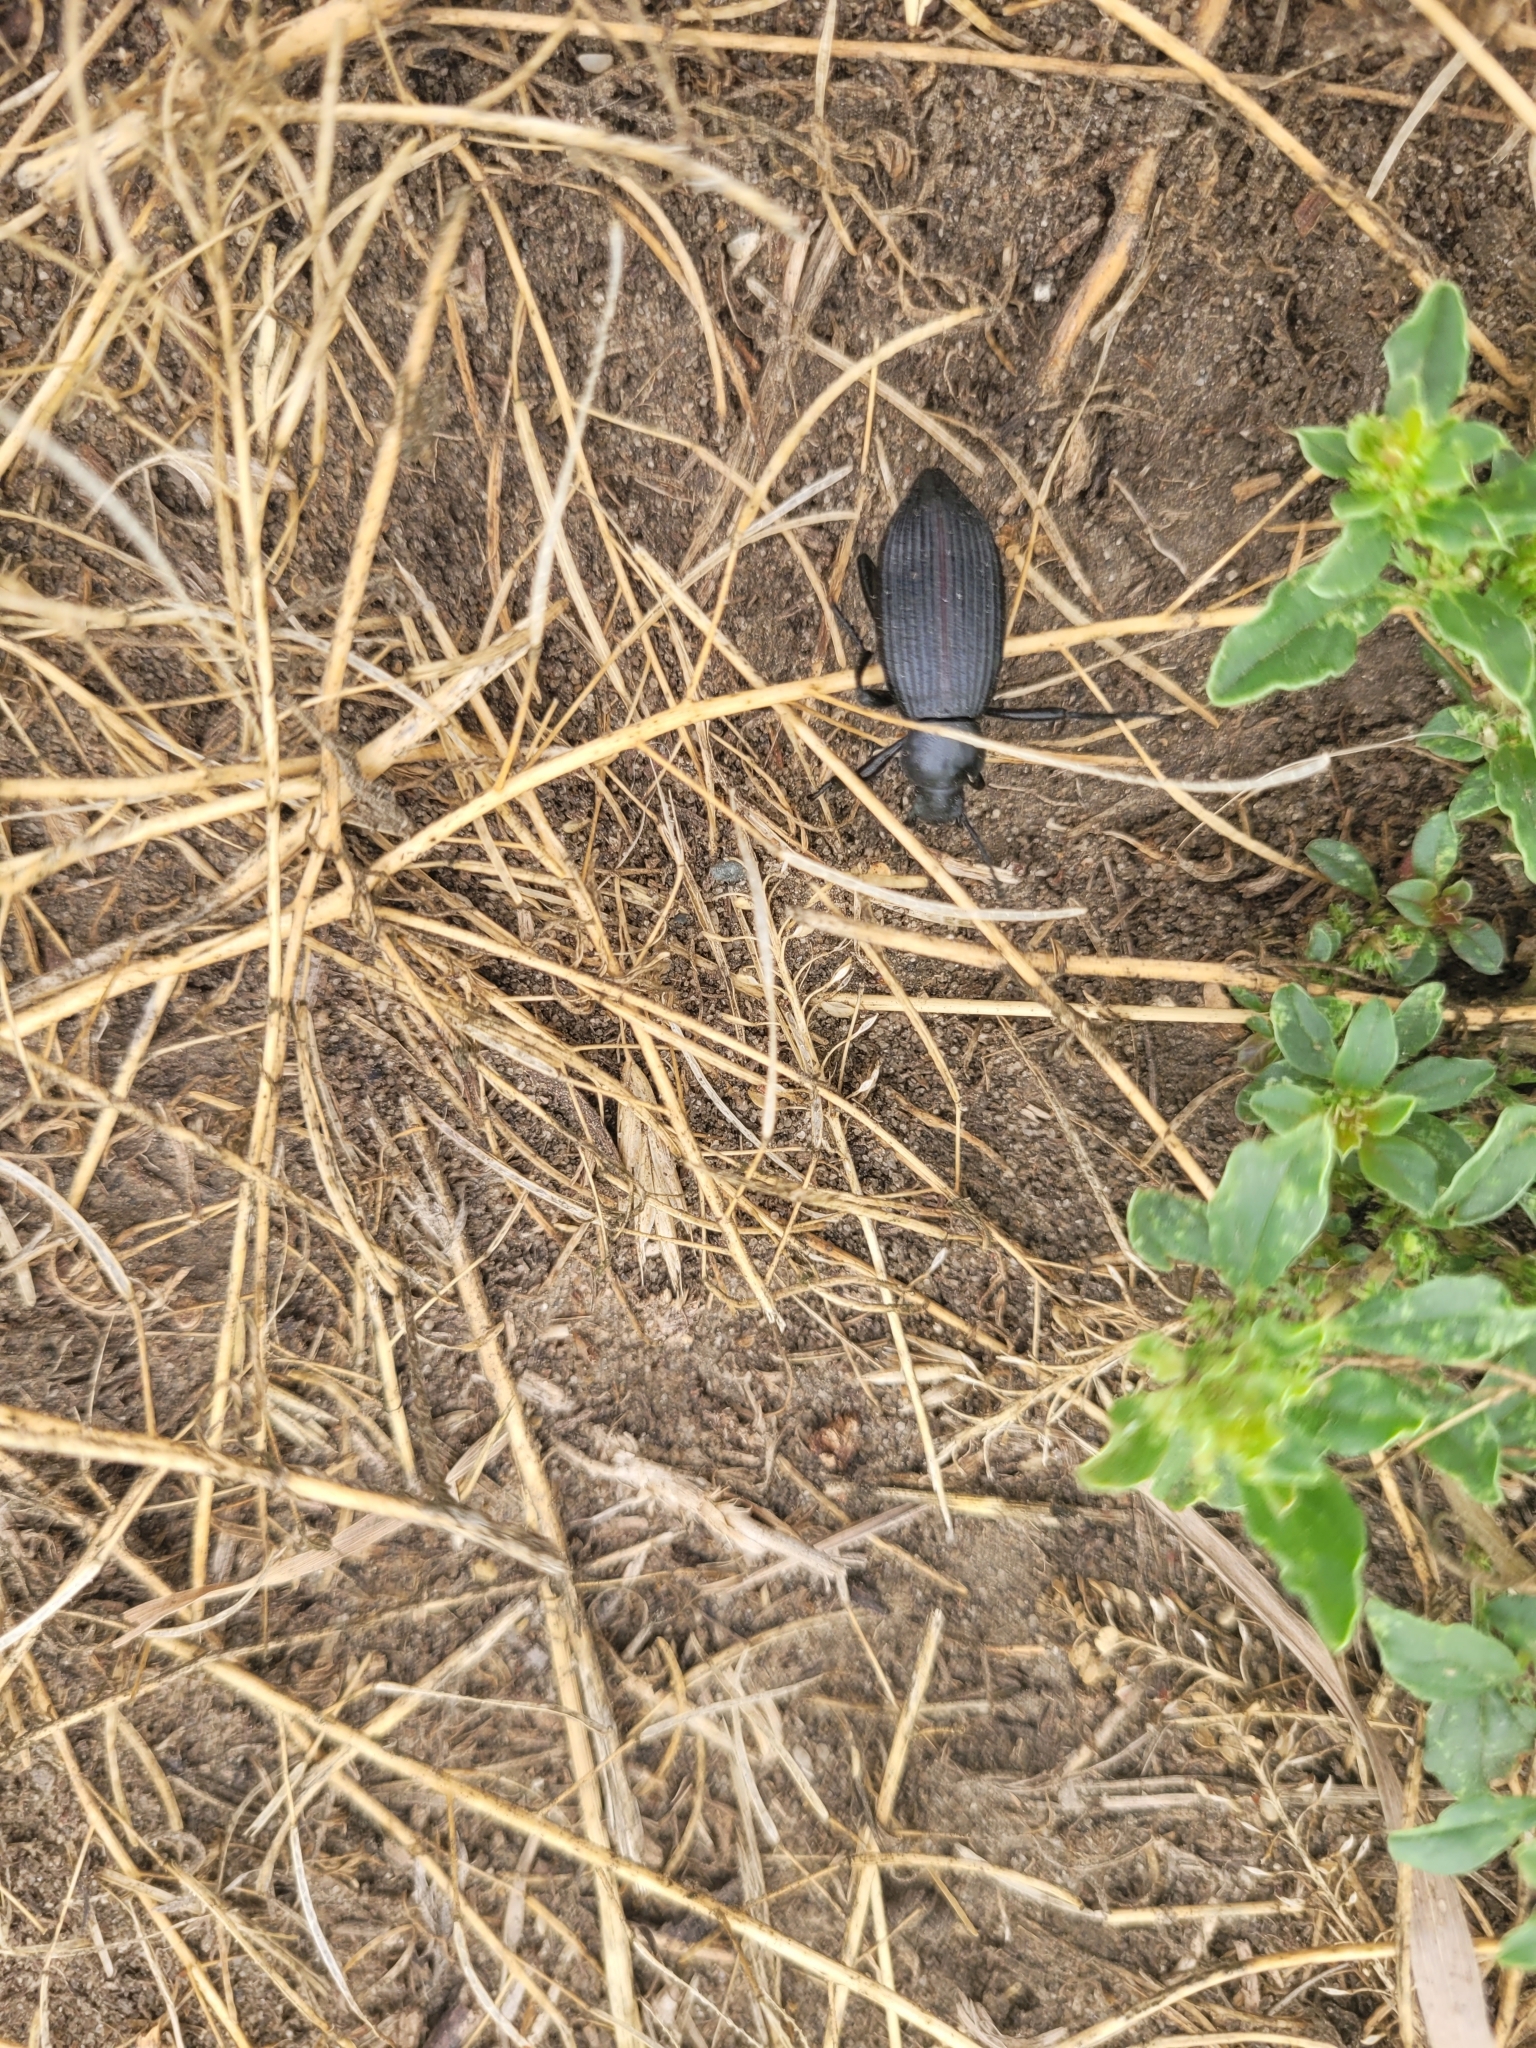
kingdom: Animalia
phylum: Arthropoda
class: Insecta
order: Coleoptera
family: Tenebrionidae
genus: Eleodes
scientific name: Eleodes hispilabris
